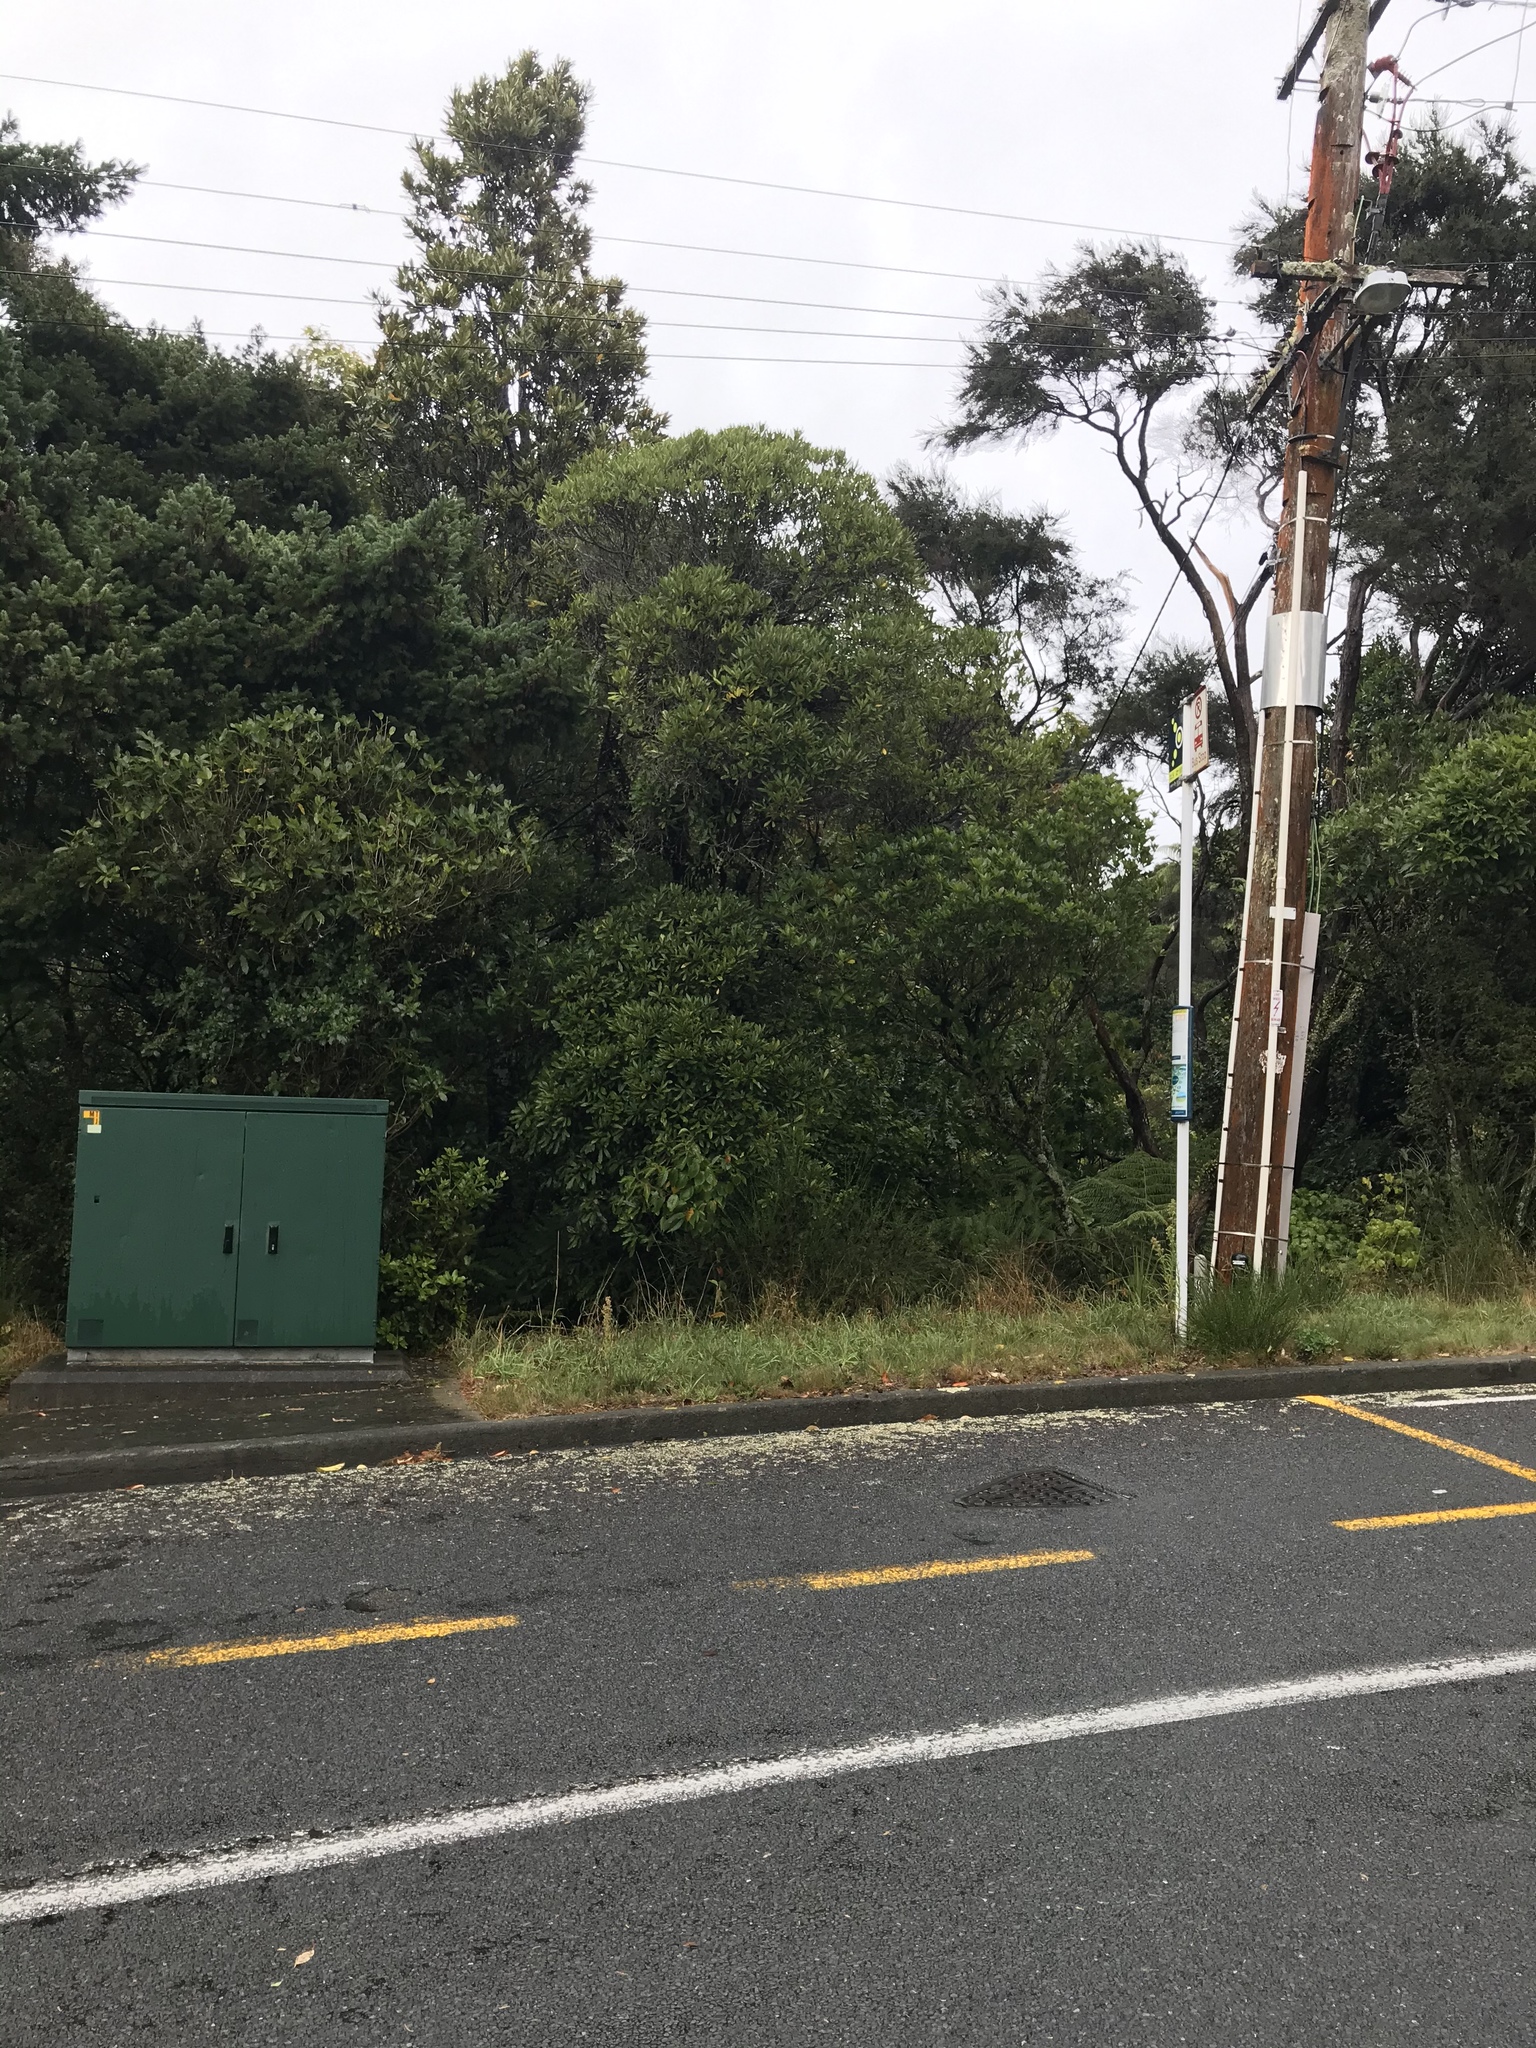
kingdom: Plantae
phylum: Tracheophyta
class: Magnoliopsida
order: Oxalidales
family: Elaeocarpaceae
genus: Elaeocarpus
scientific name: Elaeocarpus dentatus
